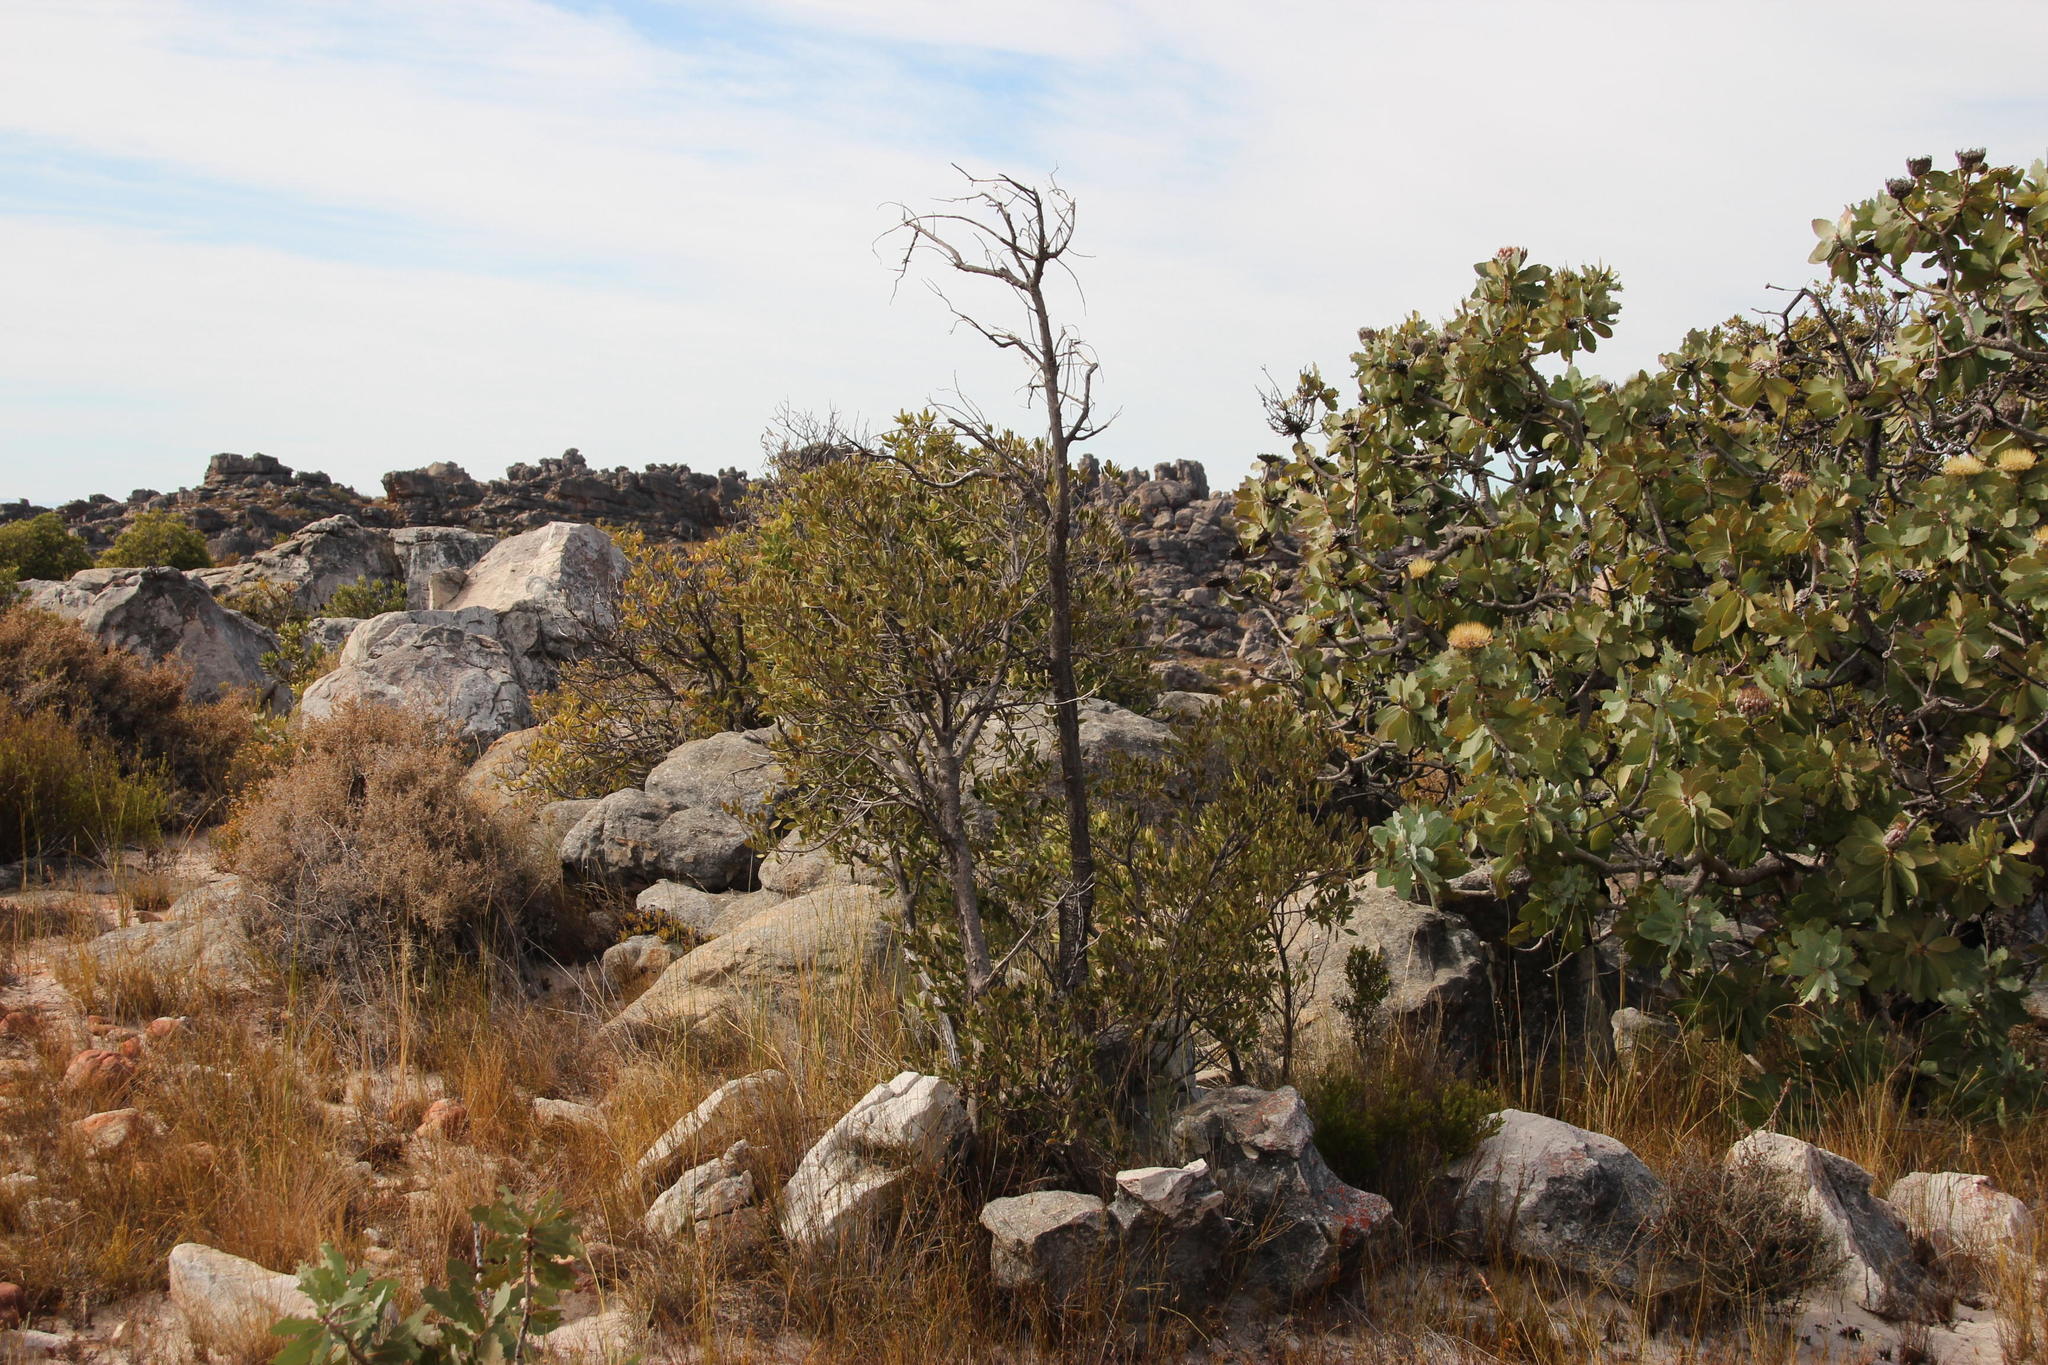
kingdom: Plantae
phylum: Tracheophyta
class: Magnoliopsida
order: Celastrales
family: Celastraceae
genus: Gymnosporia
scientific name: Gymnosporia laurina
